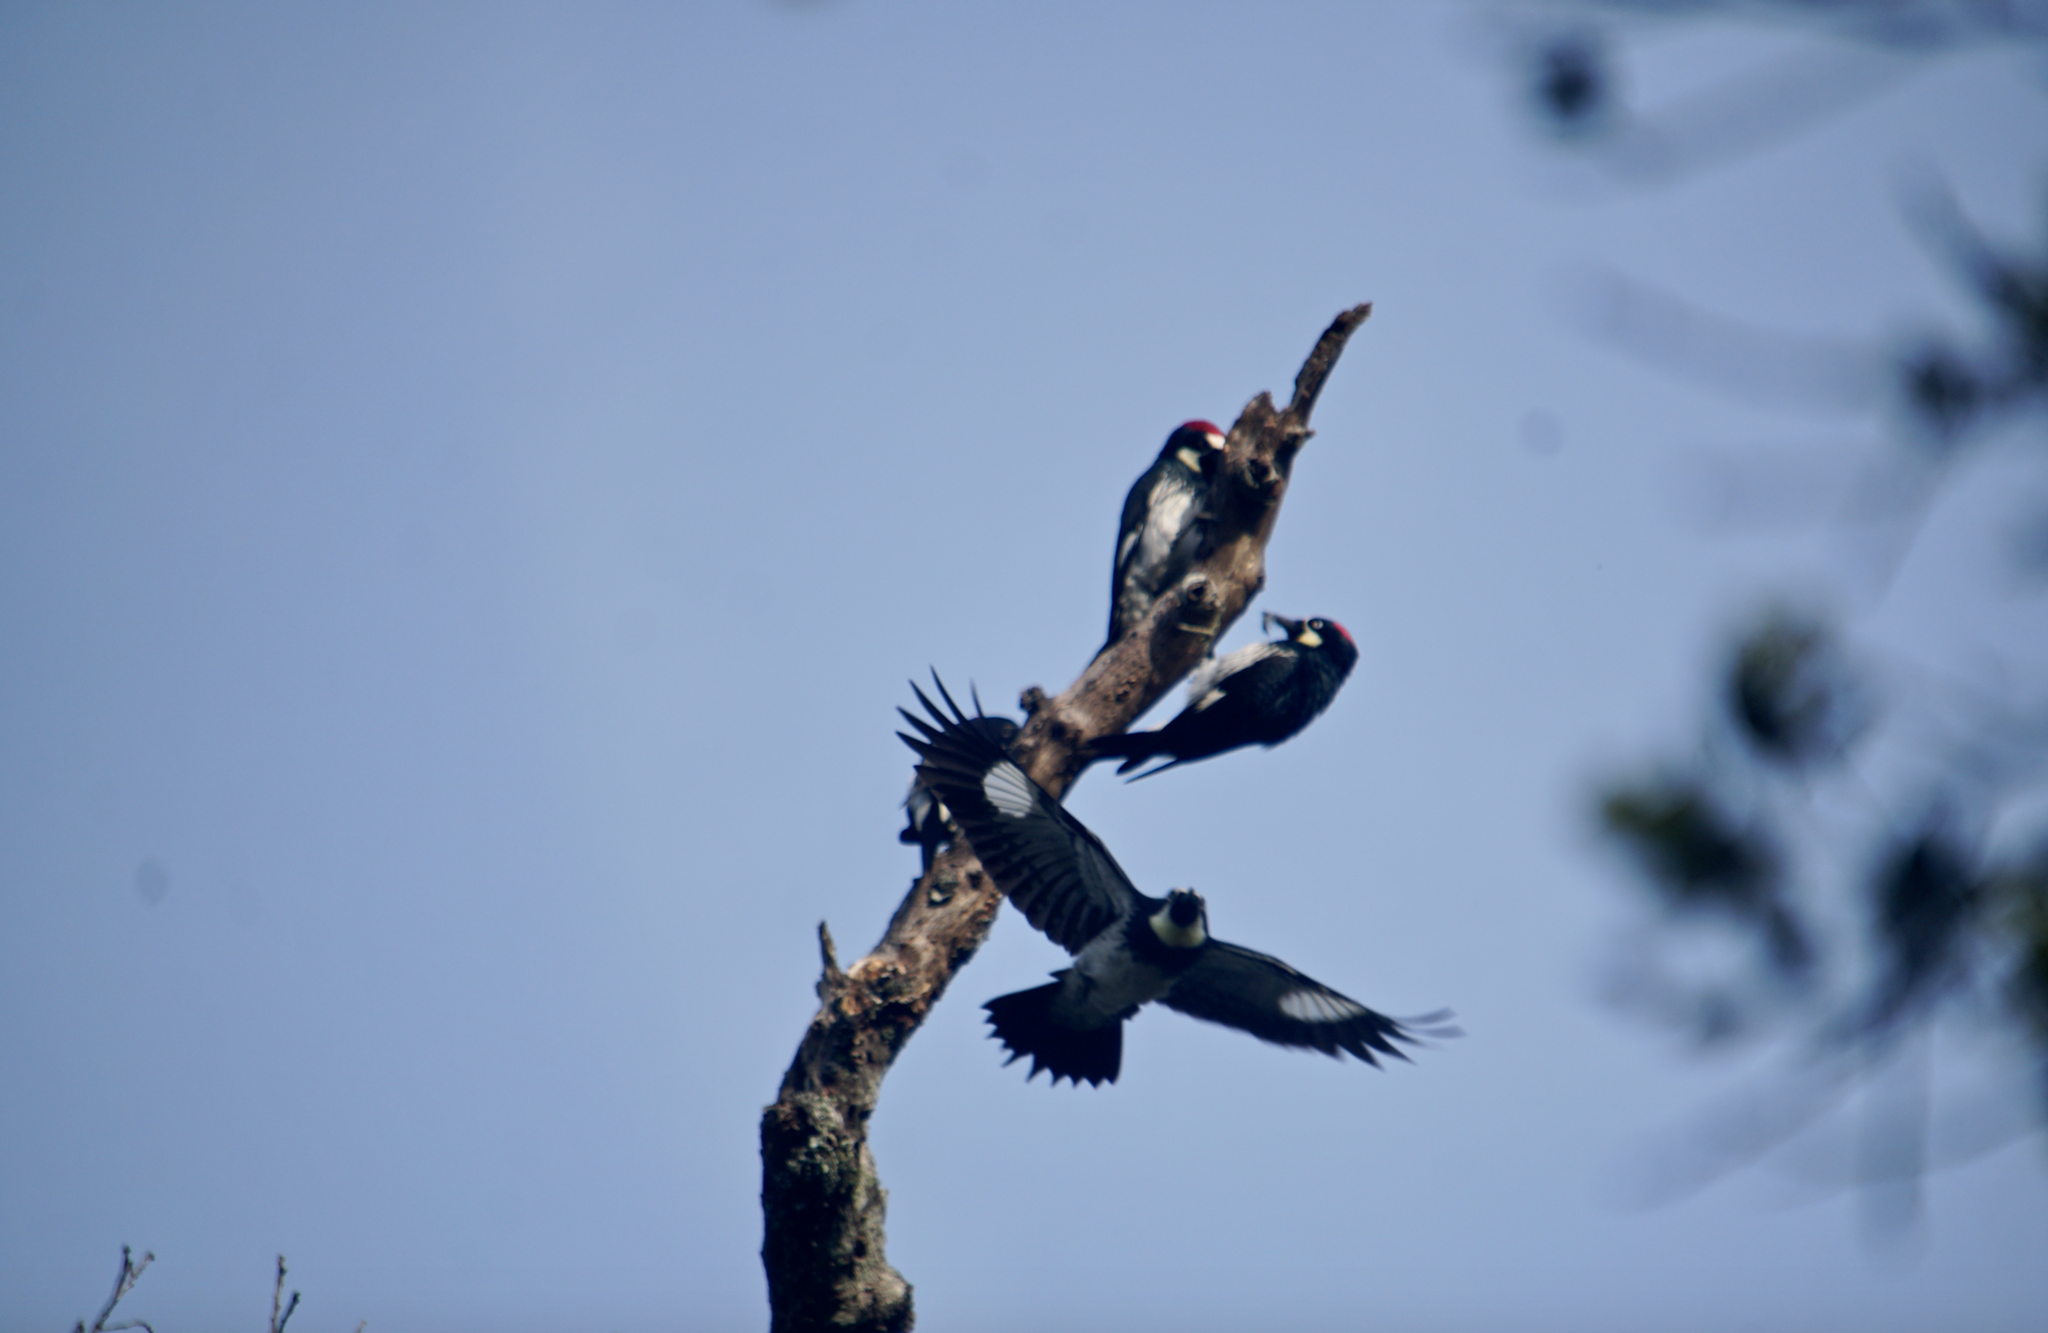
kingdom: Animalia
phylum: Chordata
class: Aves
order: Piciformes
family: Picidae
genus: Melanerpes
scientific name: Melanerpes formicivorus
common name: Acorn woodpecker
